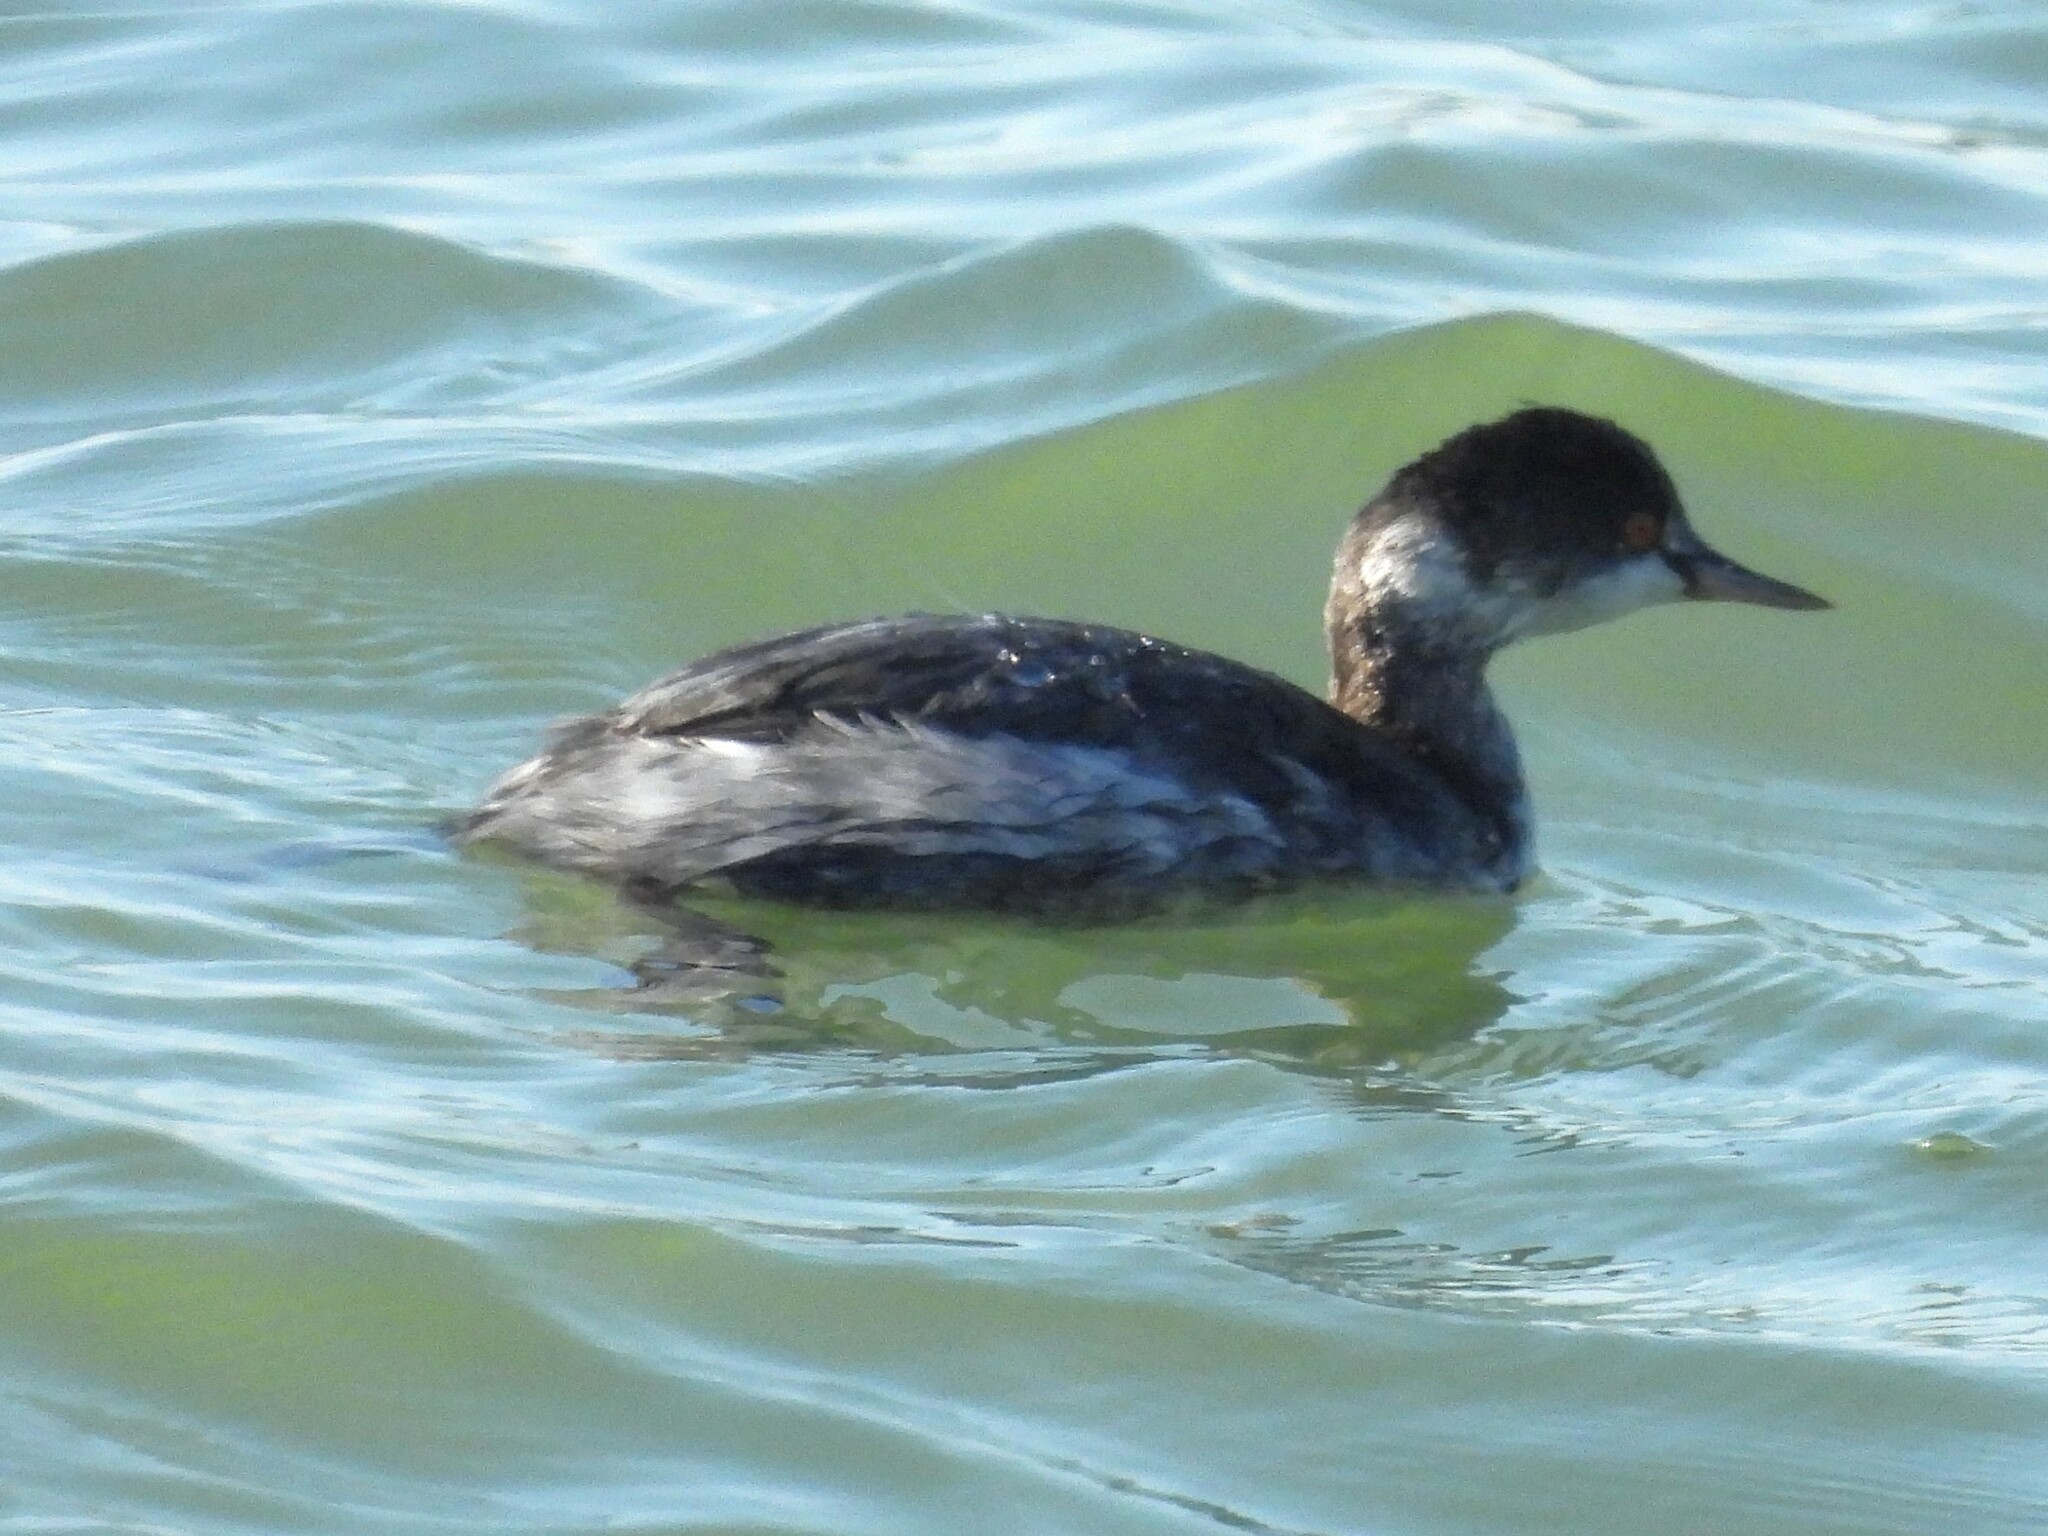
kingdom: Animalia
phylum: Chordata
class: Aves
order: Podicipediformes
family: Podicipedidae
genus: Podiceps
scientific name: Podiceps nigricollis
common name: Black-necked grebe
